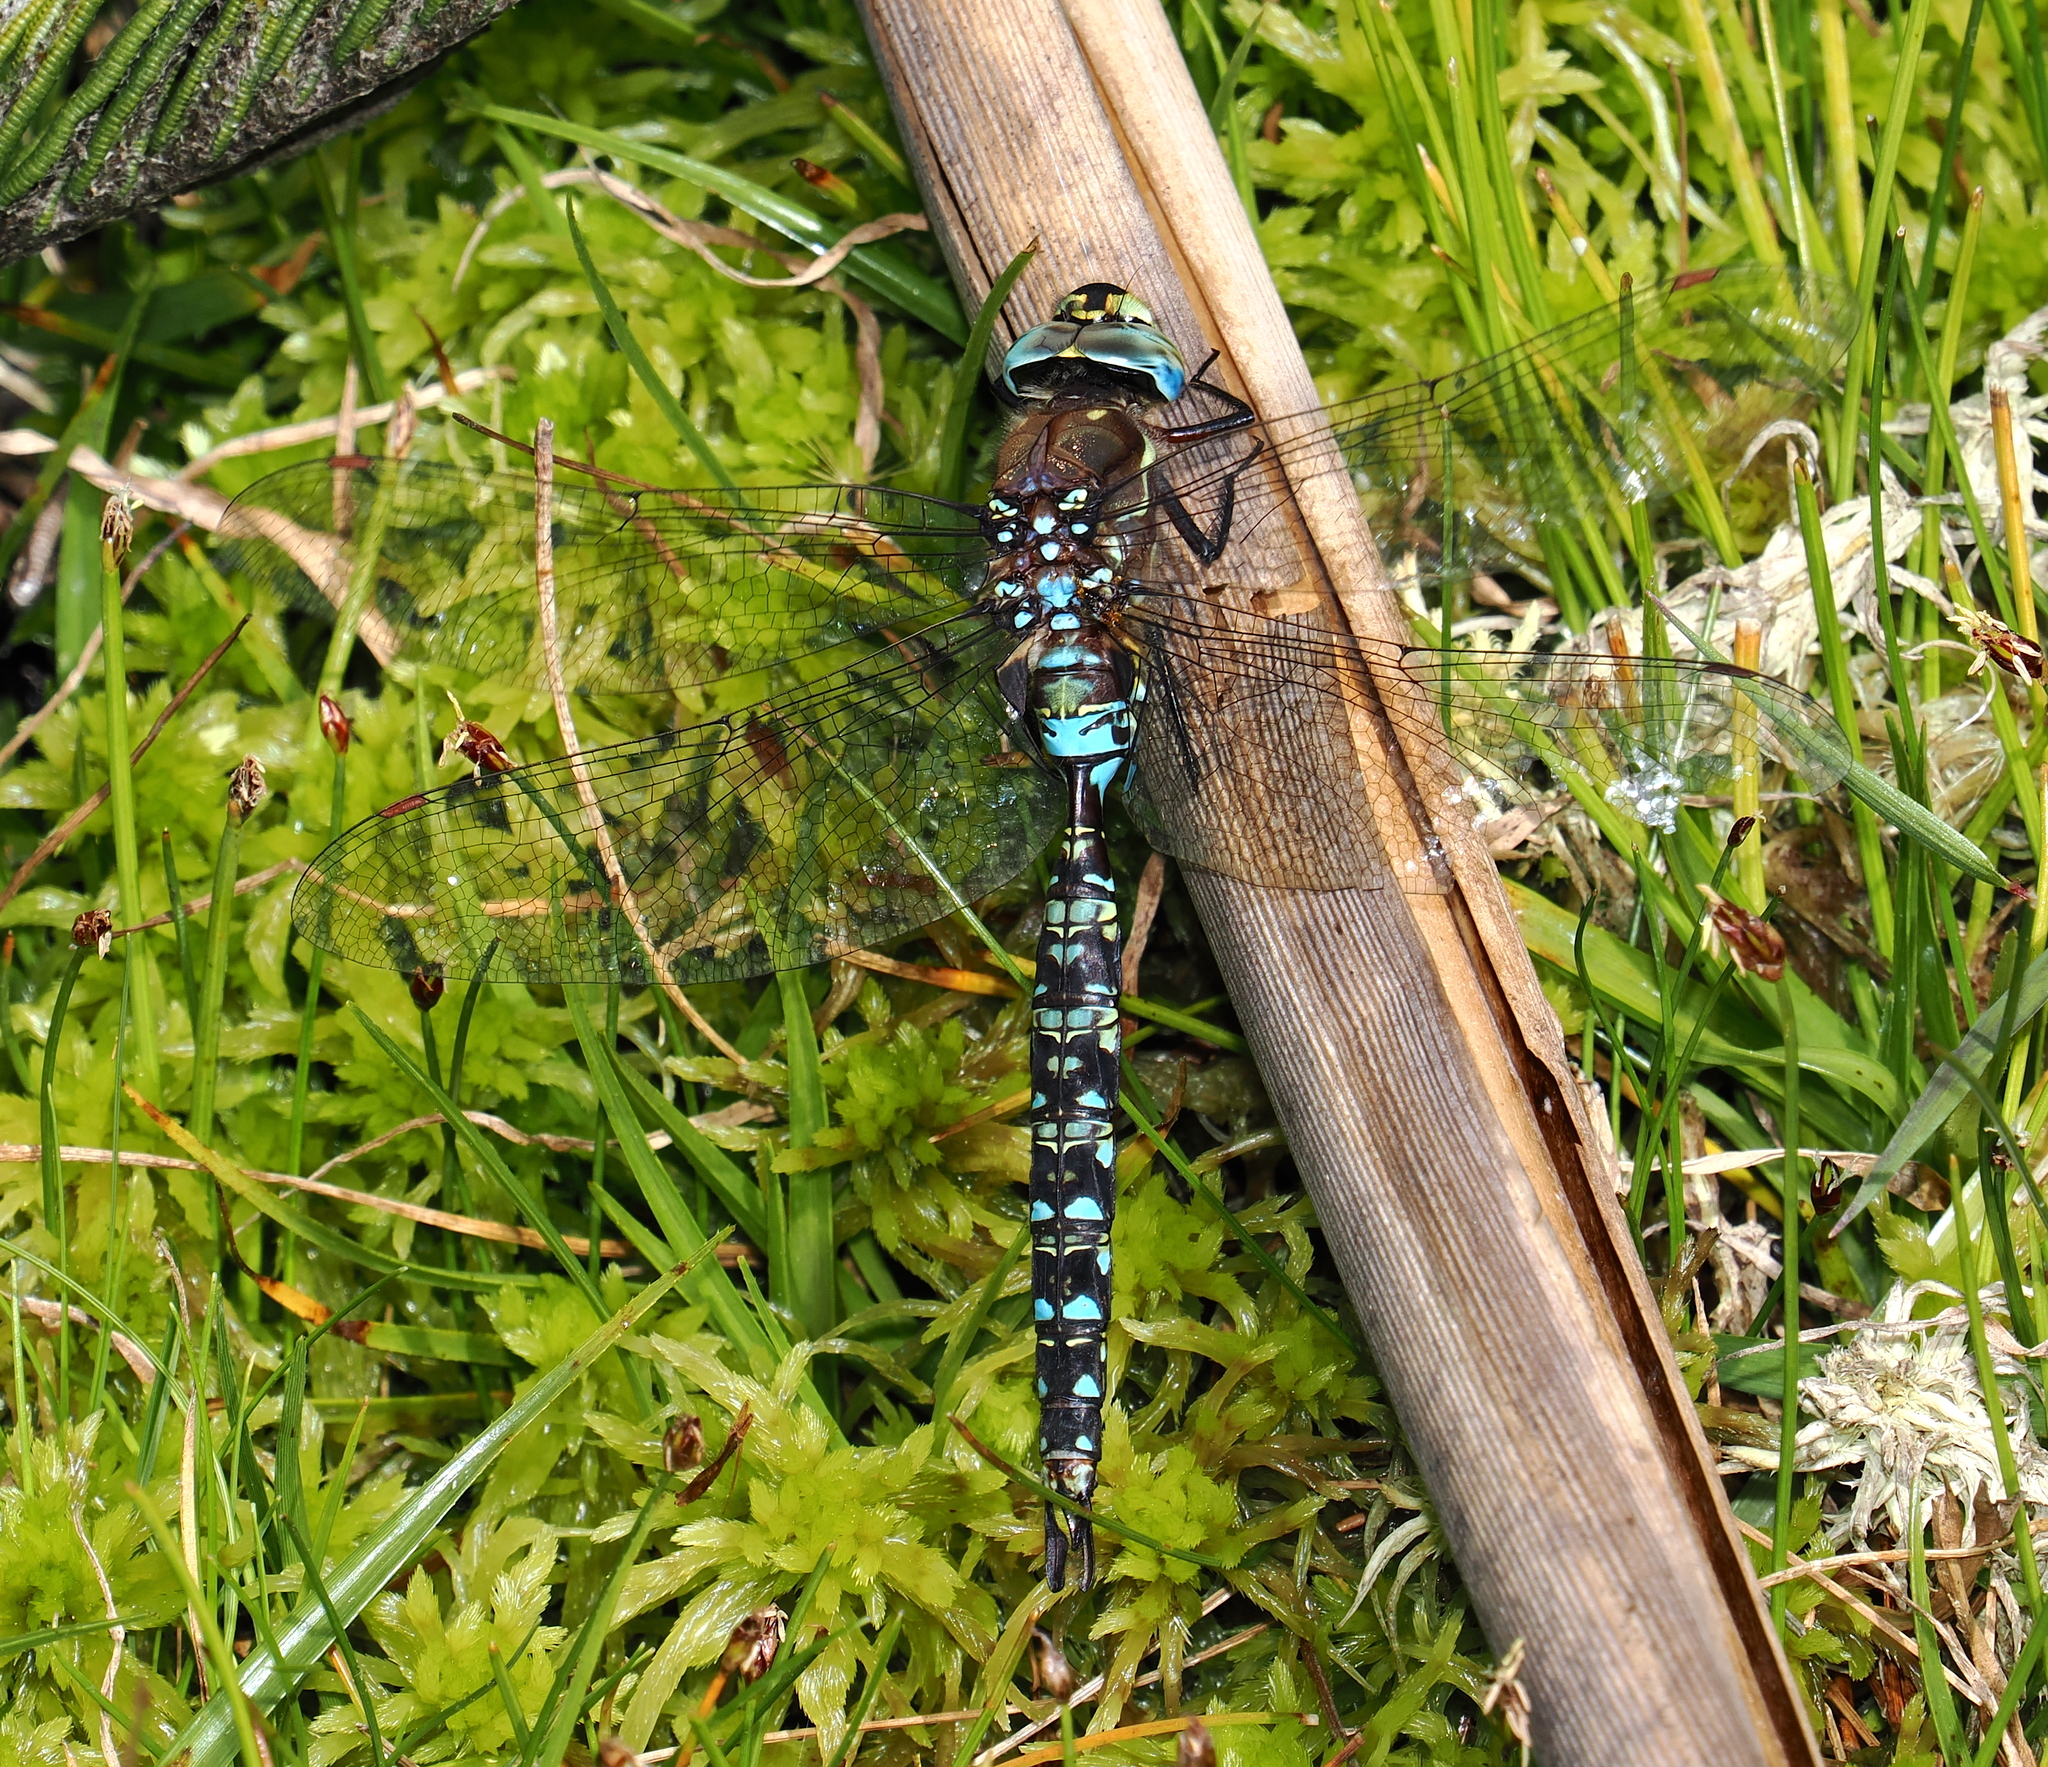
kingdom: Animalia
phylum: Arthropoda
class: Insecta
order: Odonata
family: Aeshnidae
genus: Rhionaeschna
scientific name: Rhionaeschna marchali
